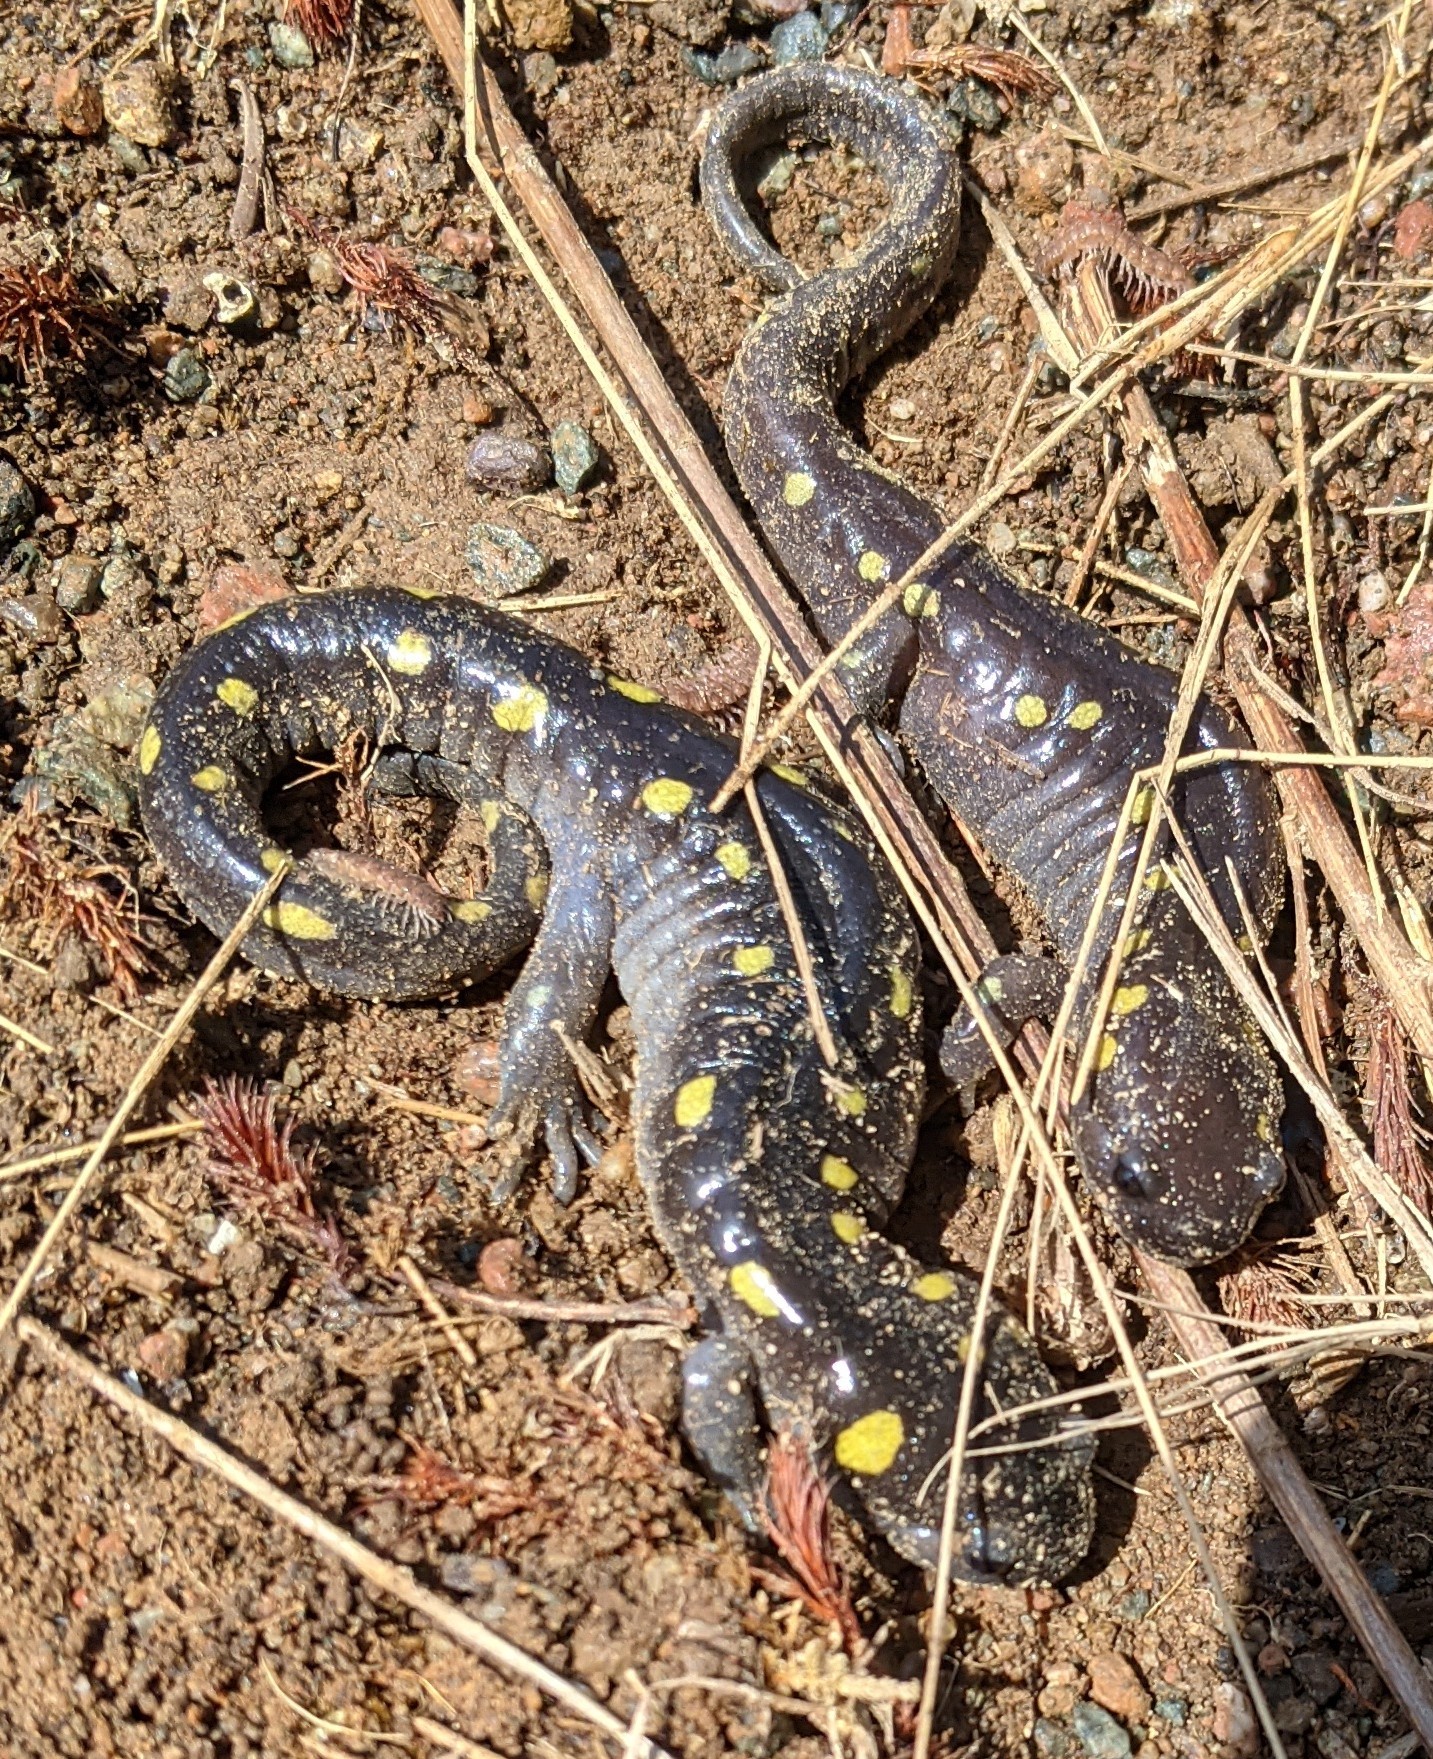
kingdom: Animalia
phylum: Chordata
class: Amphibia
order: Caudata
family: Ambystomatidae
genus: Ambystoma
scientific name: Ambystoma maculatum
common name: Spotted salamander
